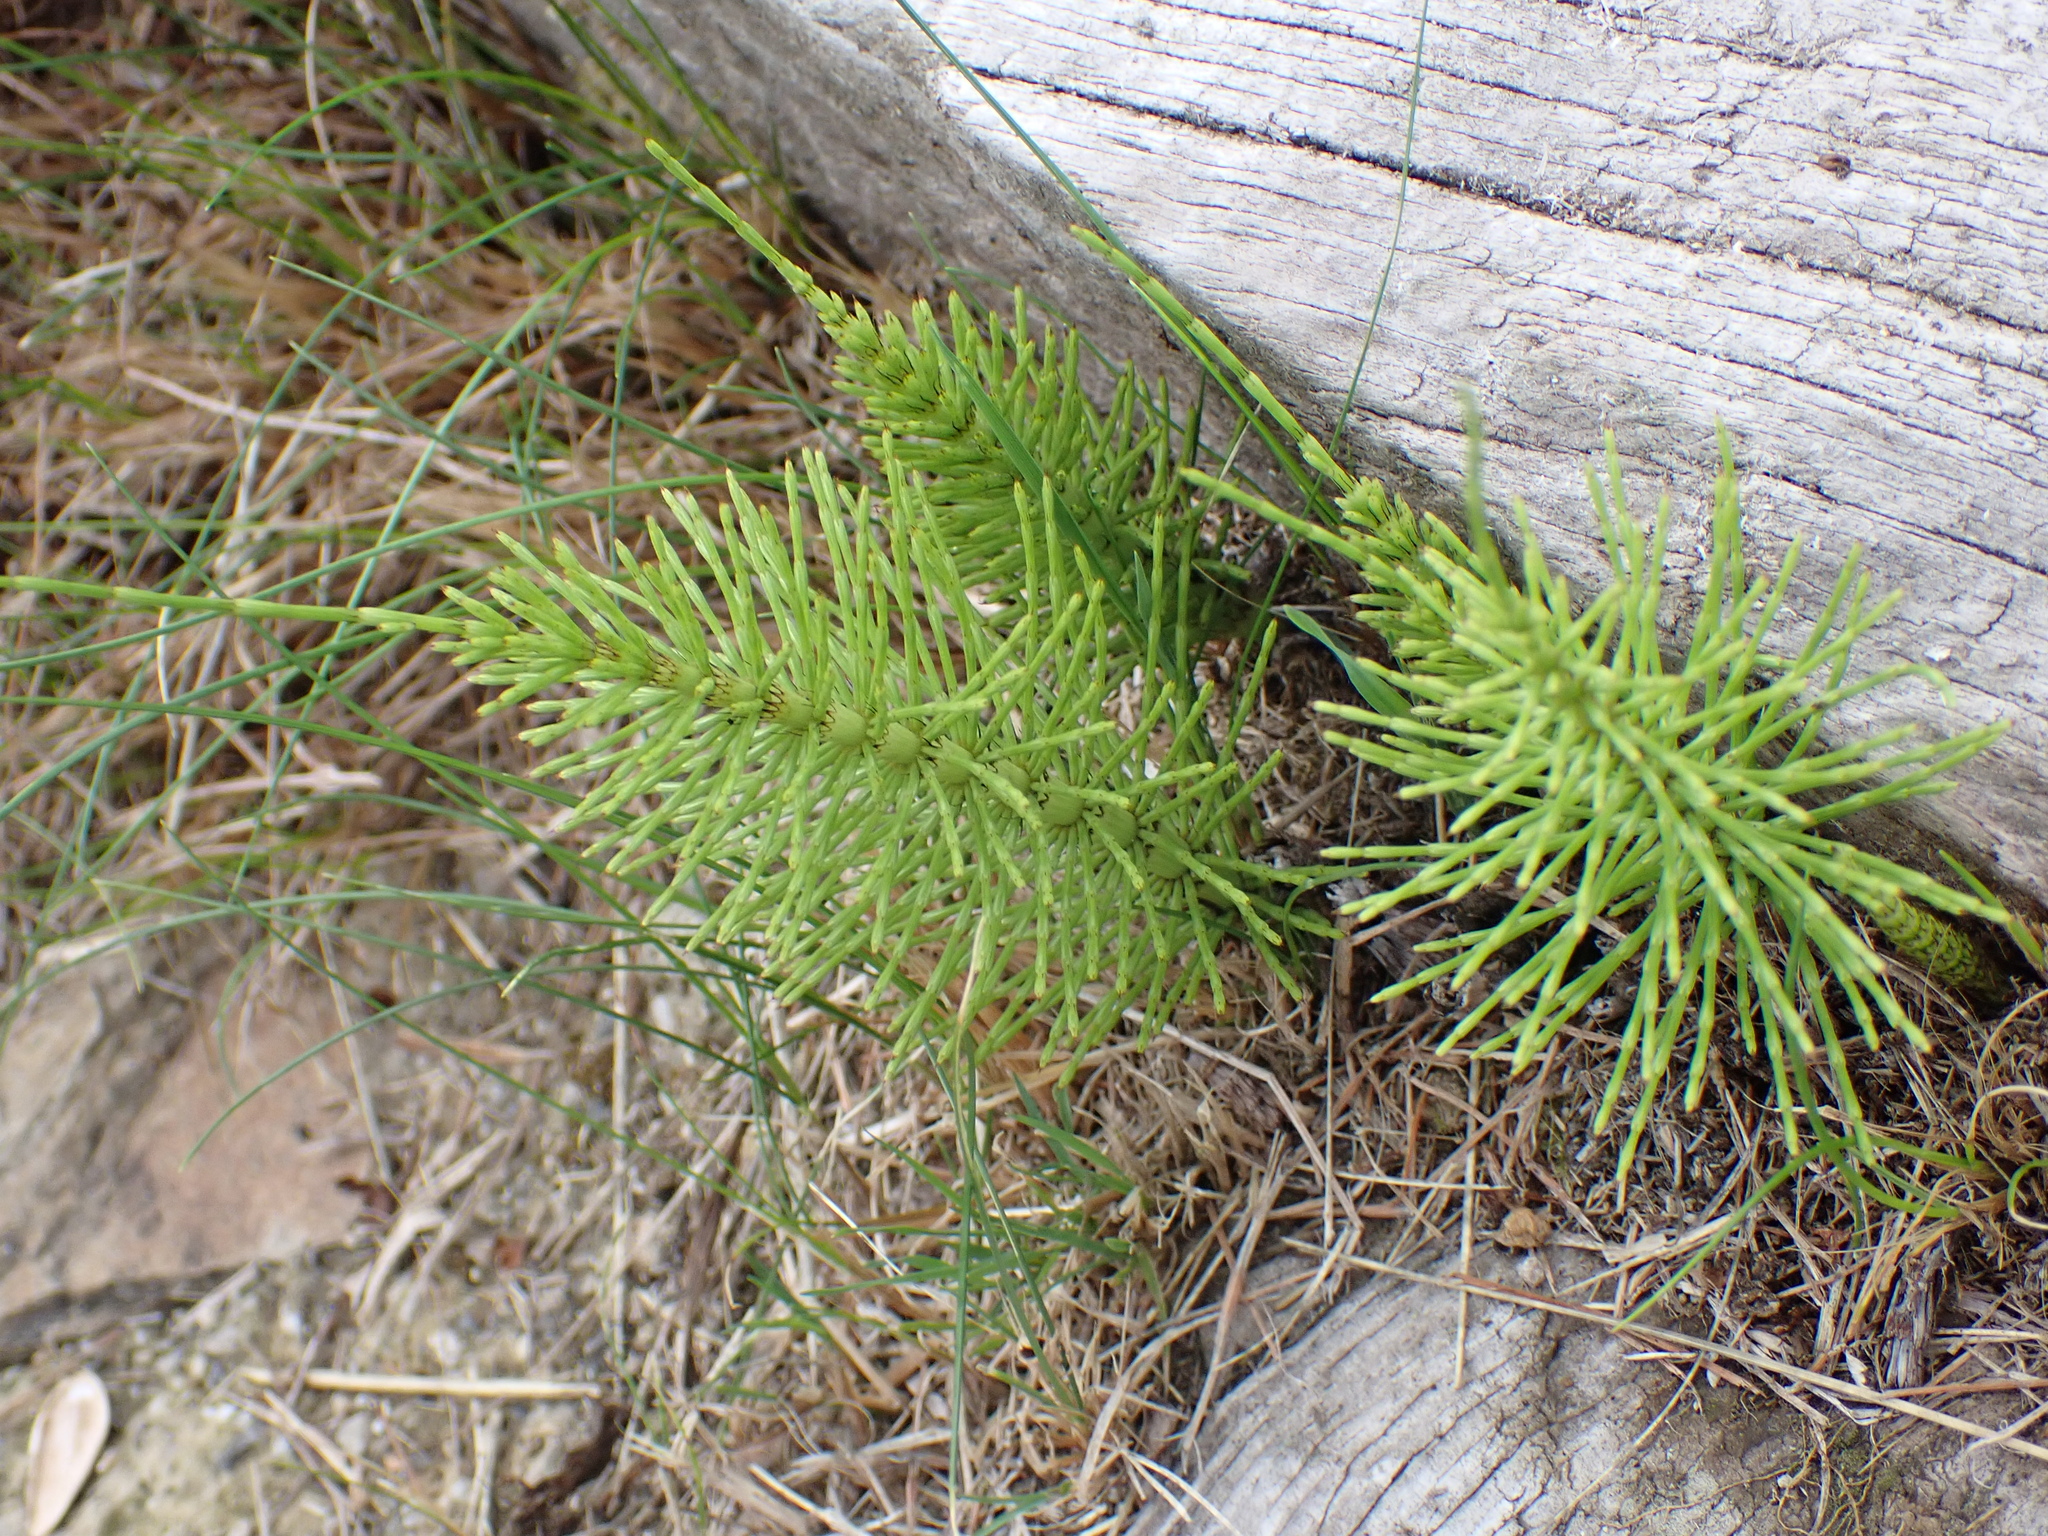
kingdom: Plantae
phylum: Tracheophyta
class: Polypodiopsida
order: Equisetales
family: Equisetaceae
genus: Equisetum
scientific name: Equisetum telmateia
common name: Great horsetail
